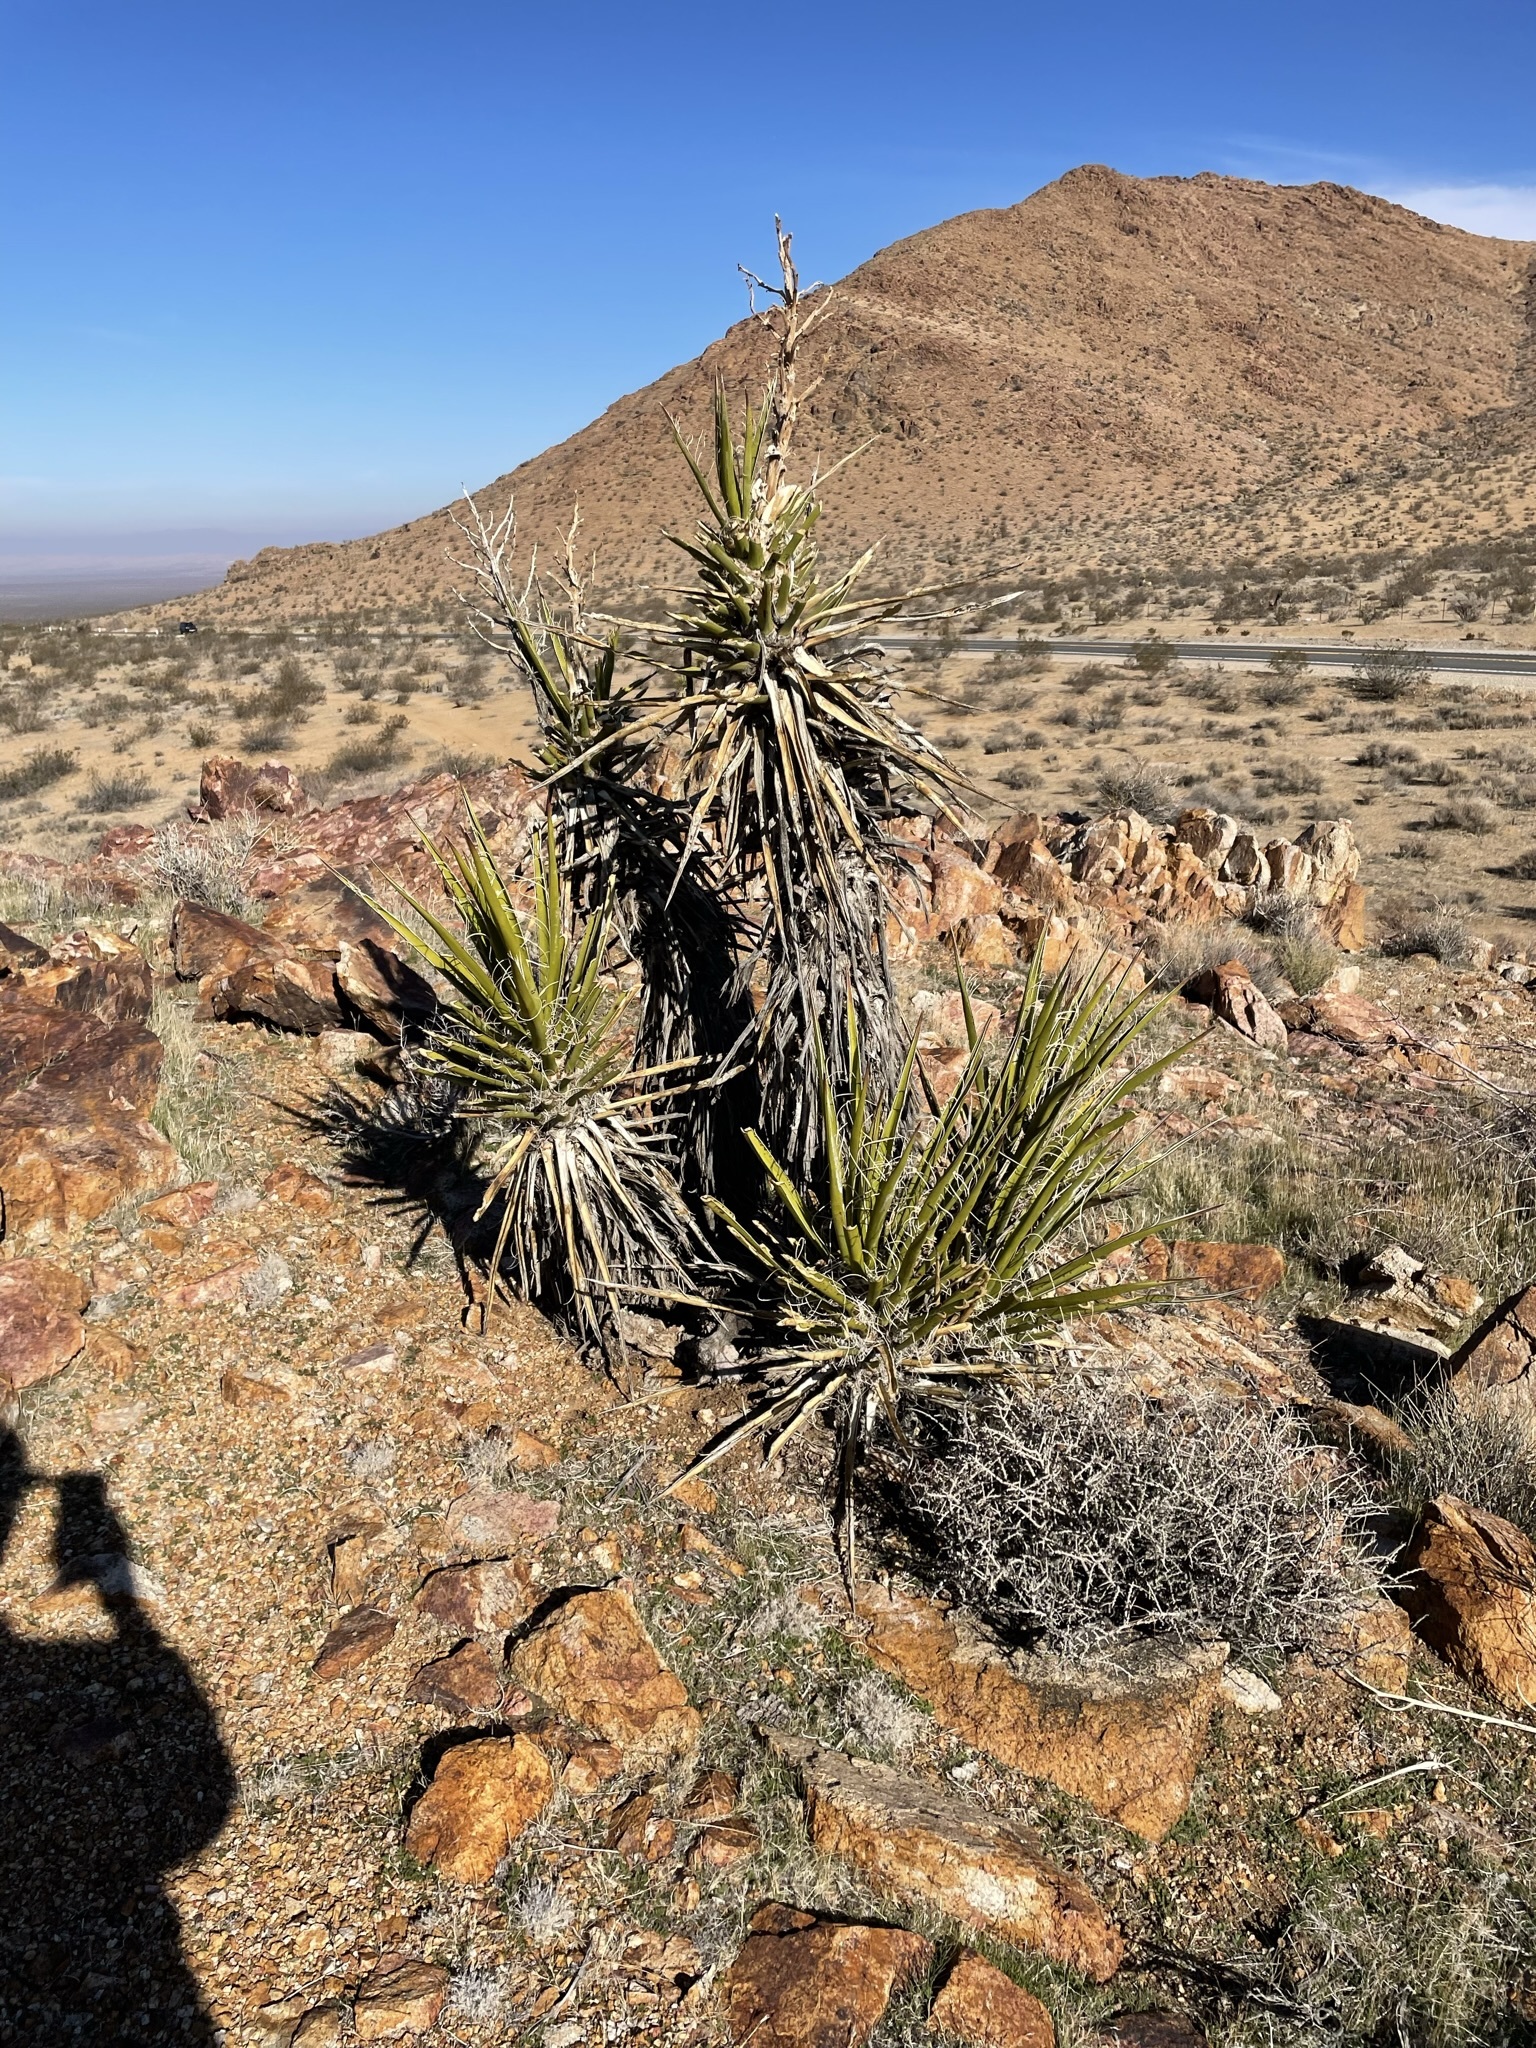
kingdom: Plantae
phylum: Tracheophyta
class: Liliopsida
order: Asparagales
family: Asparagaceae
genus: Yucca
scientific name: Yucca schidigera
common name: Mojave yucca
